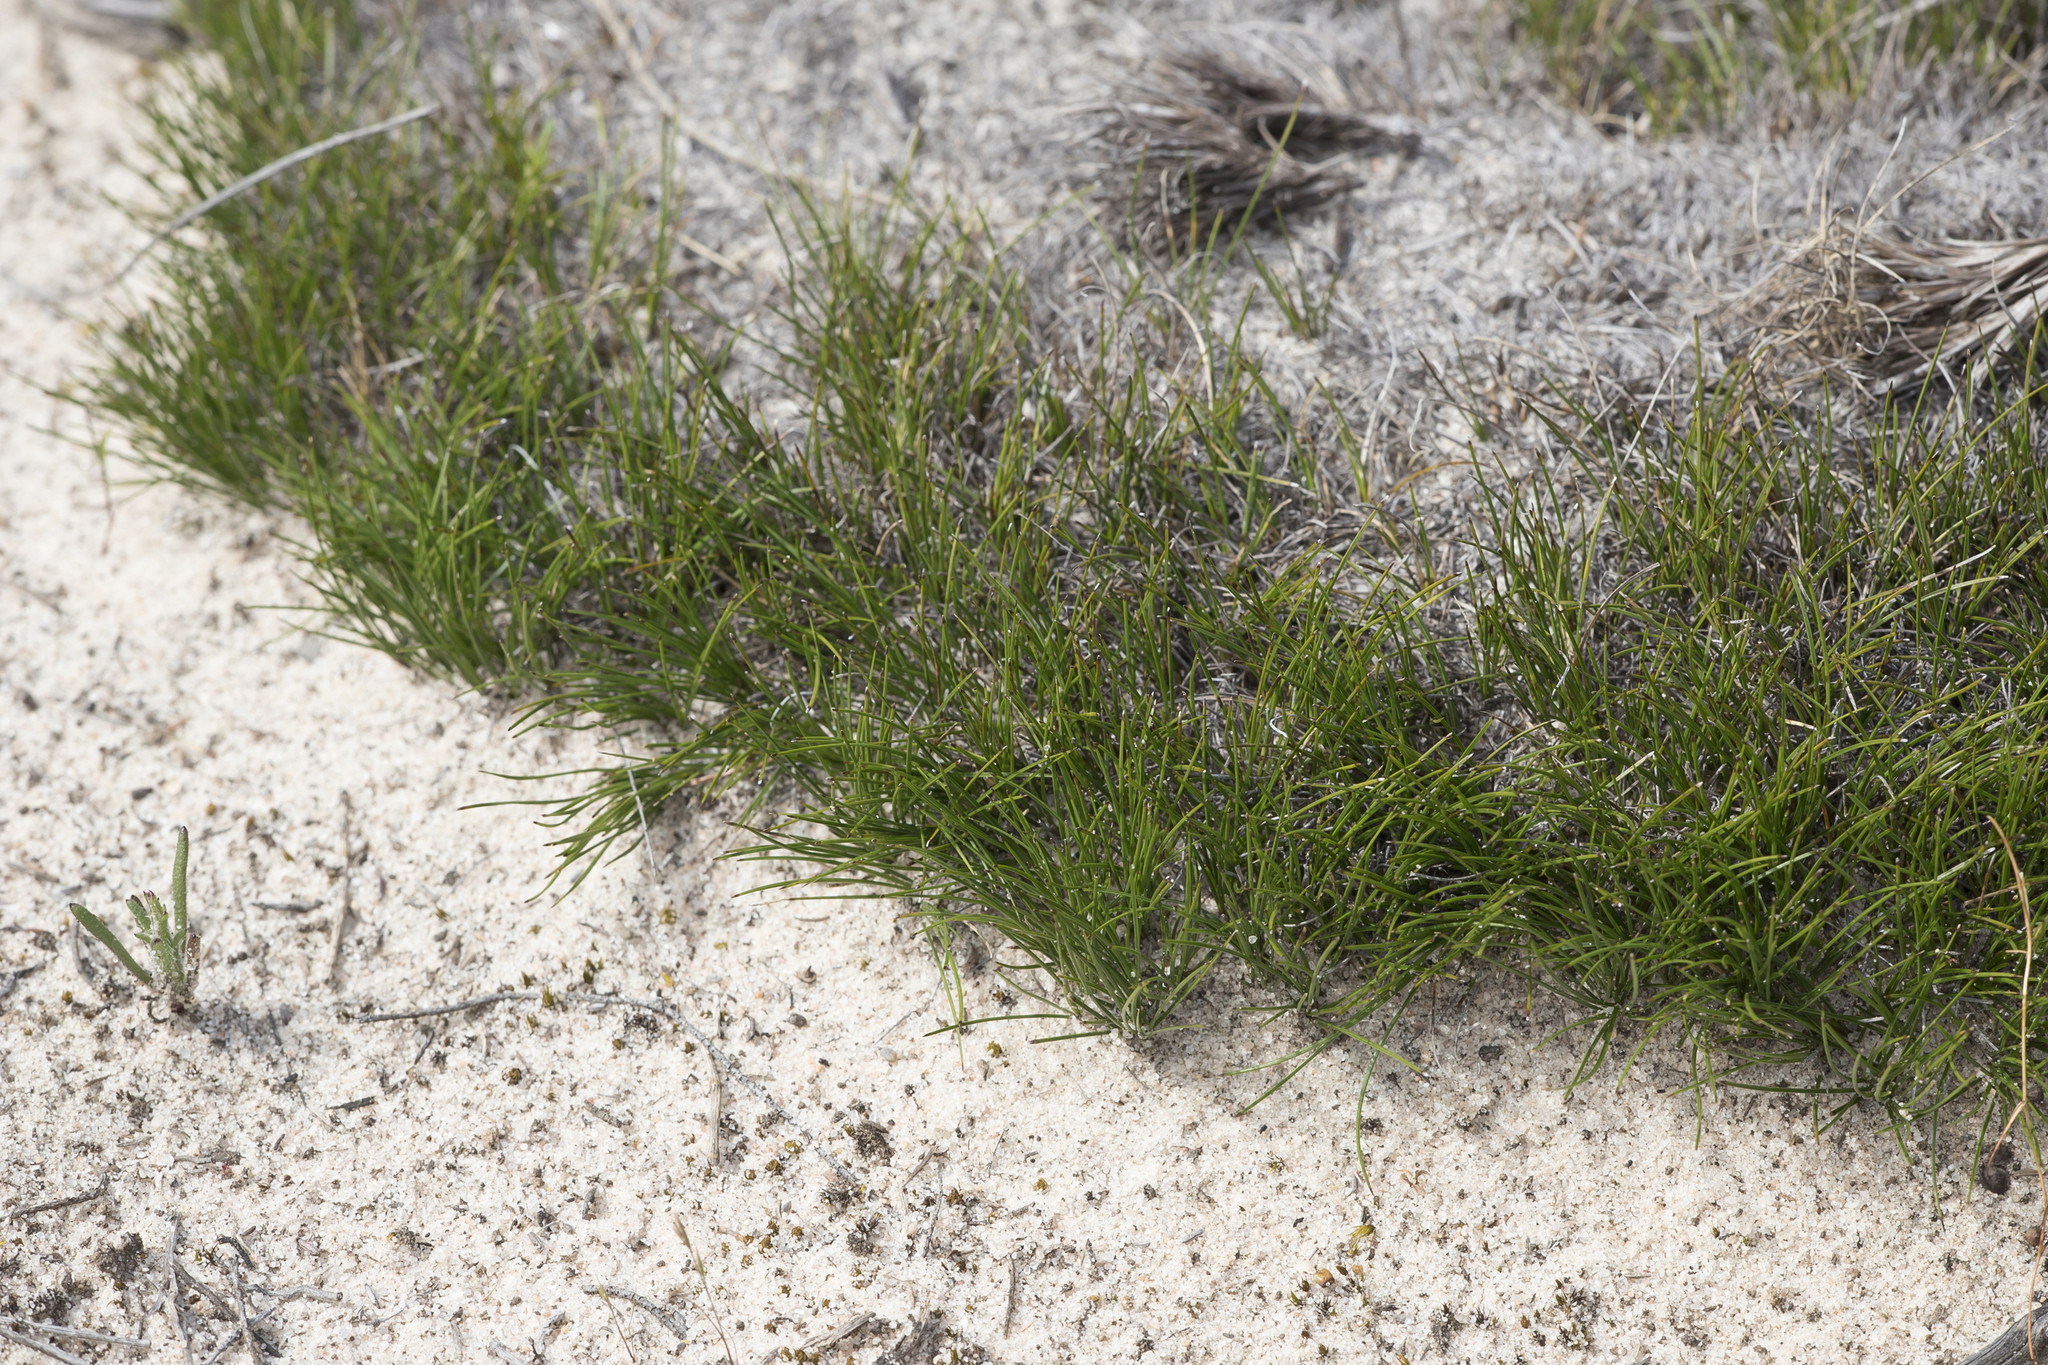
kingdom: Plantae
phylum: Tracheophyta
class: Liliopsida
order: Poales
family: Cyperaceae
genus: Schoenus
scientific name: Schoenus breviculmis
